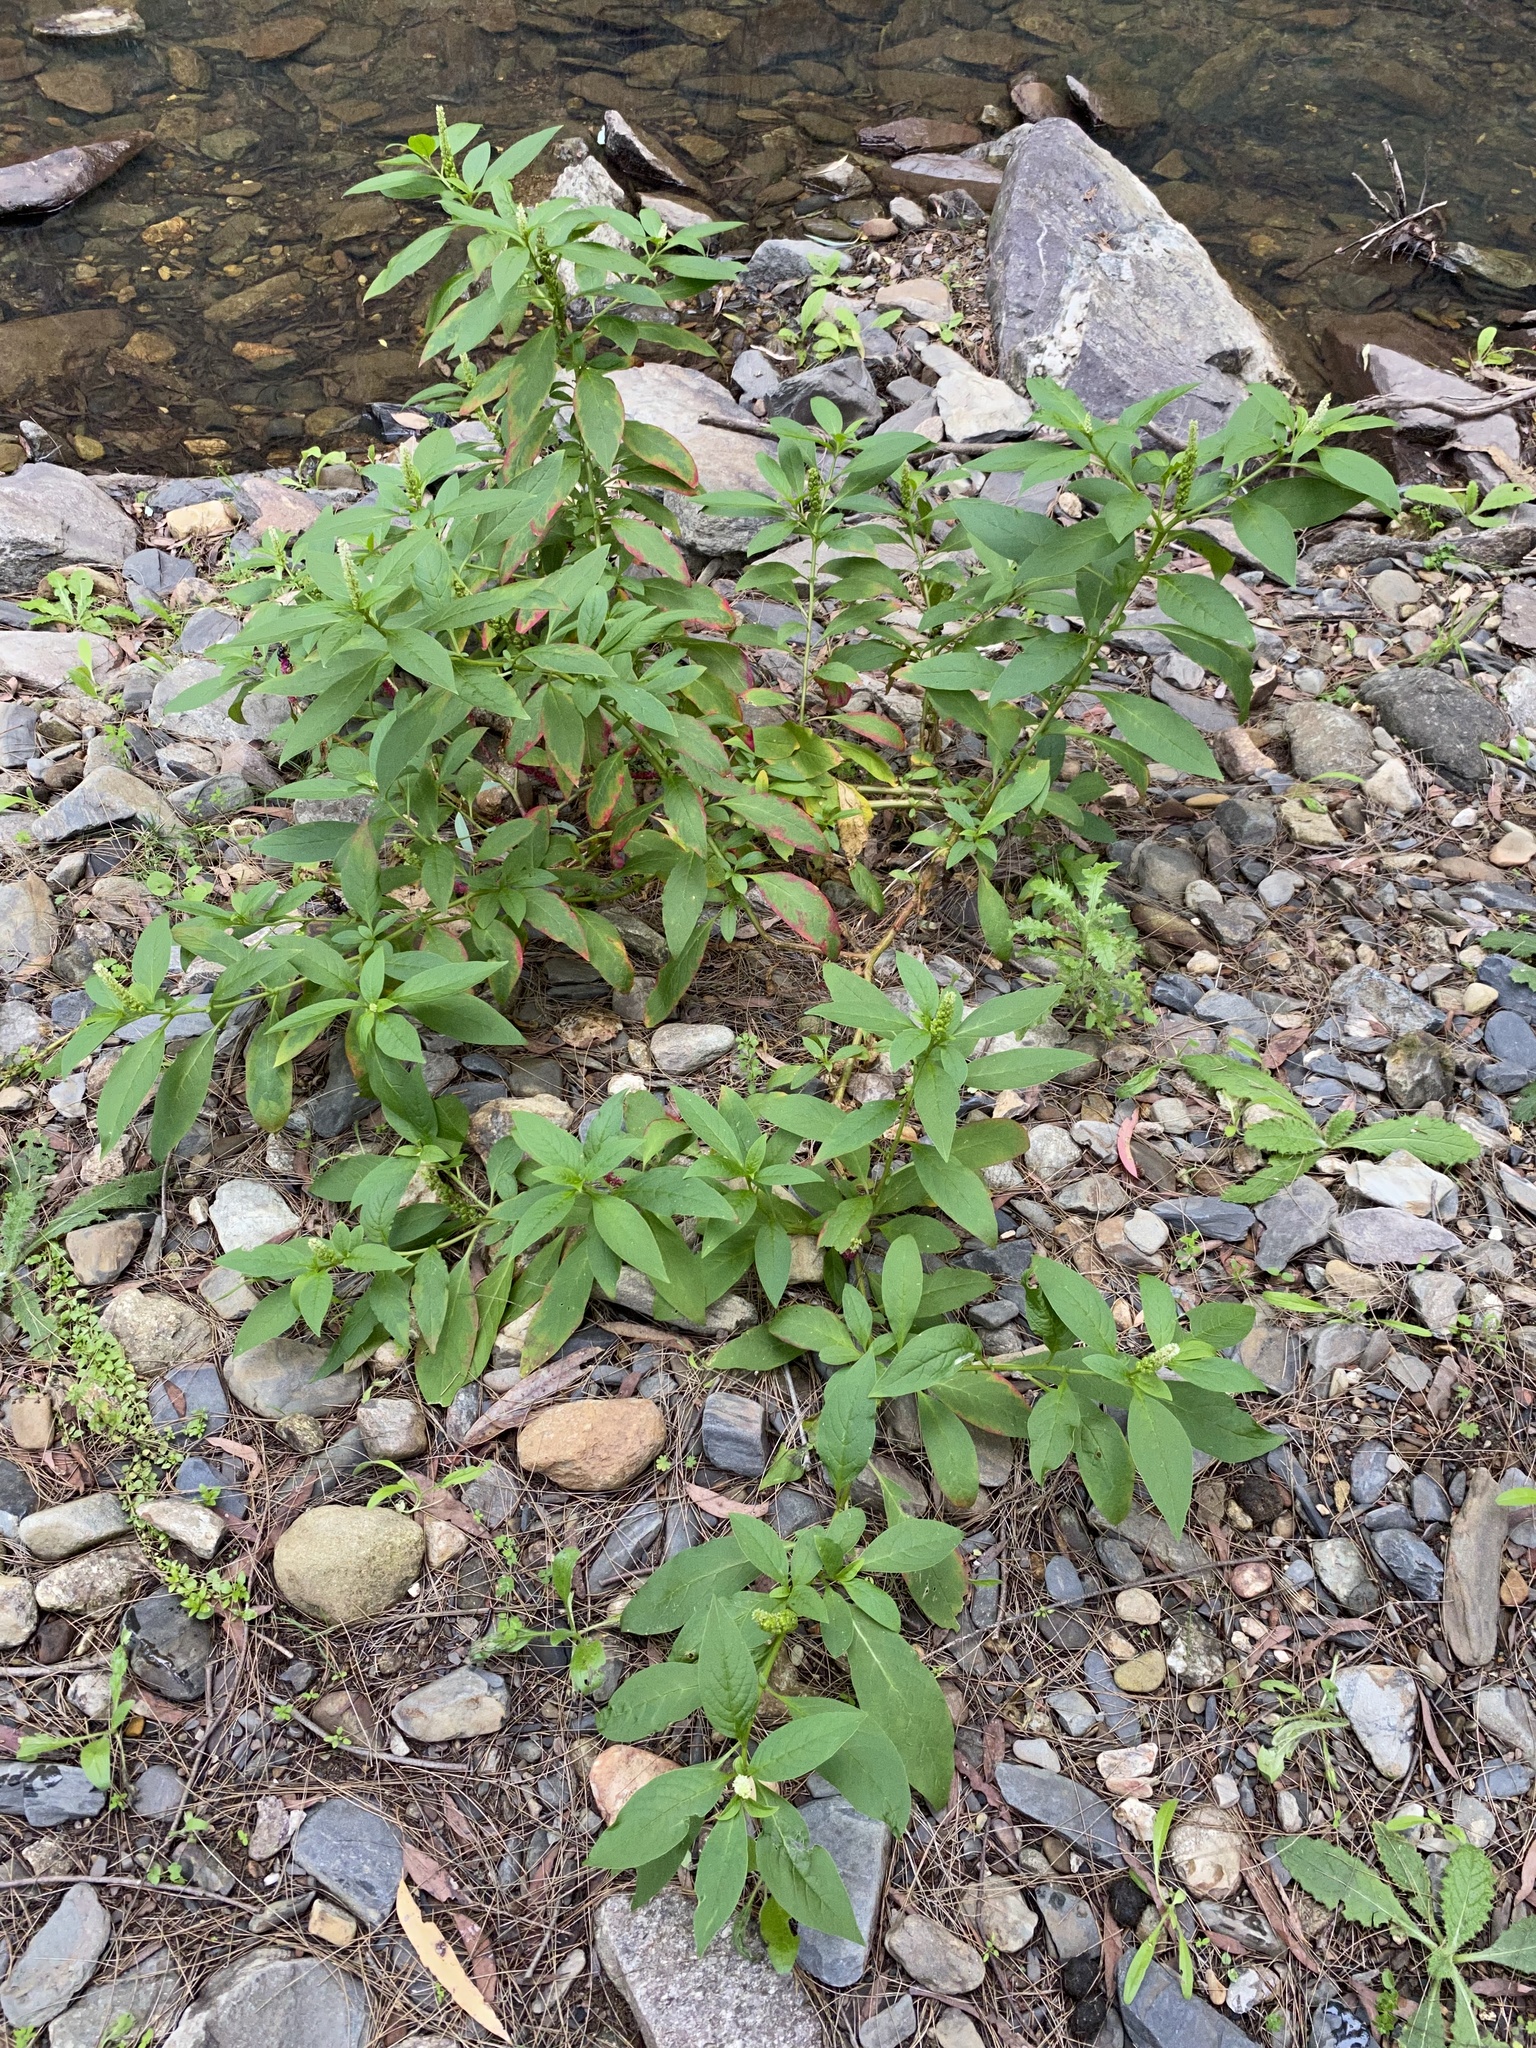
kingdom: Plantae
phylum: Tracheophyta
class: Magnoliopsida
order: Caryophyllales
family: Phytolaccaceae
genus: Phytolacca
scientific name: Phytolacca icosandra
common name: Button pokeweed
